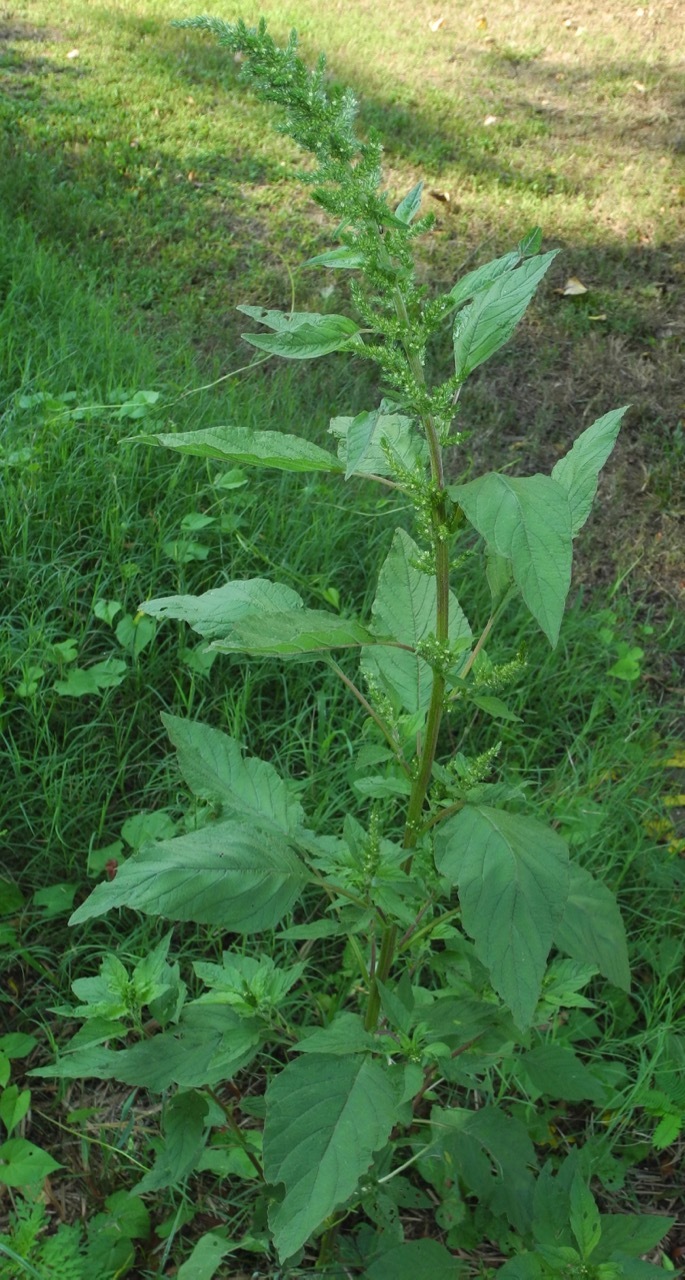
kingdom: Plantae
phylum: Tracheophyta
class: Magnoliopsida
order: Caryophyllales
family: Amaranthaceae
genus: Amaranthus
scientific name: Amaranthus viridis
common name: Slender amaranth
